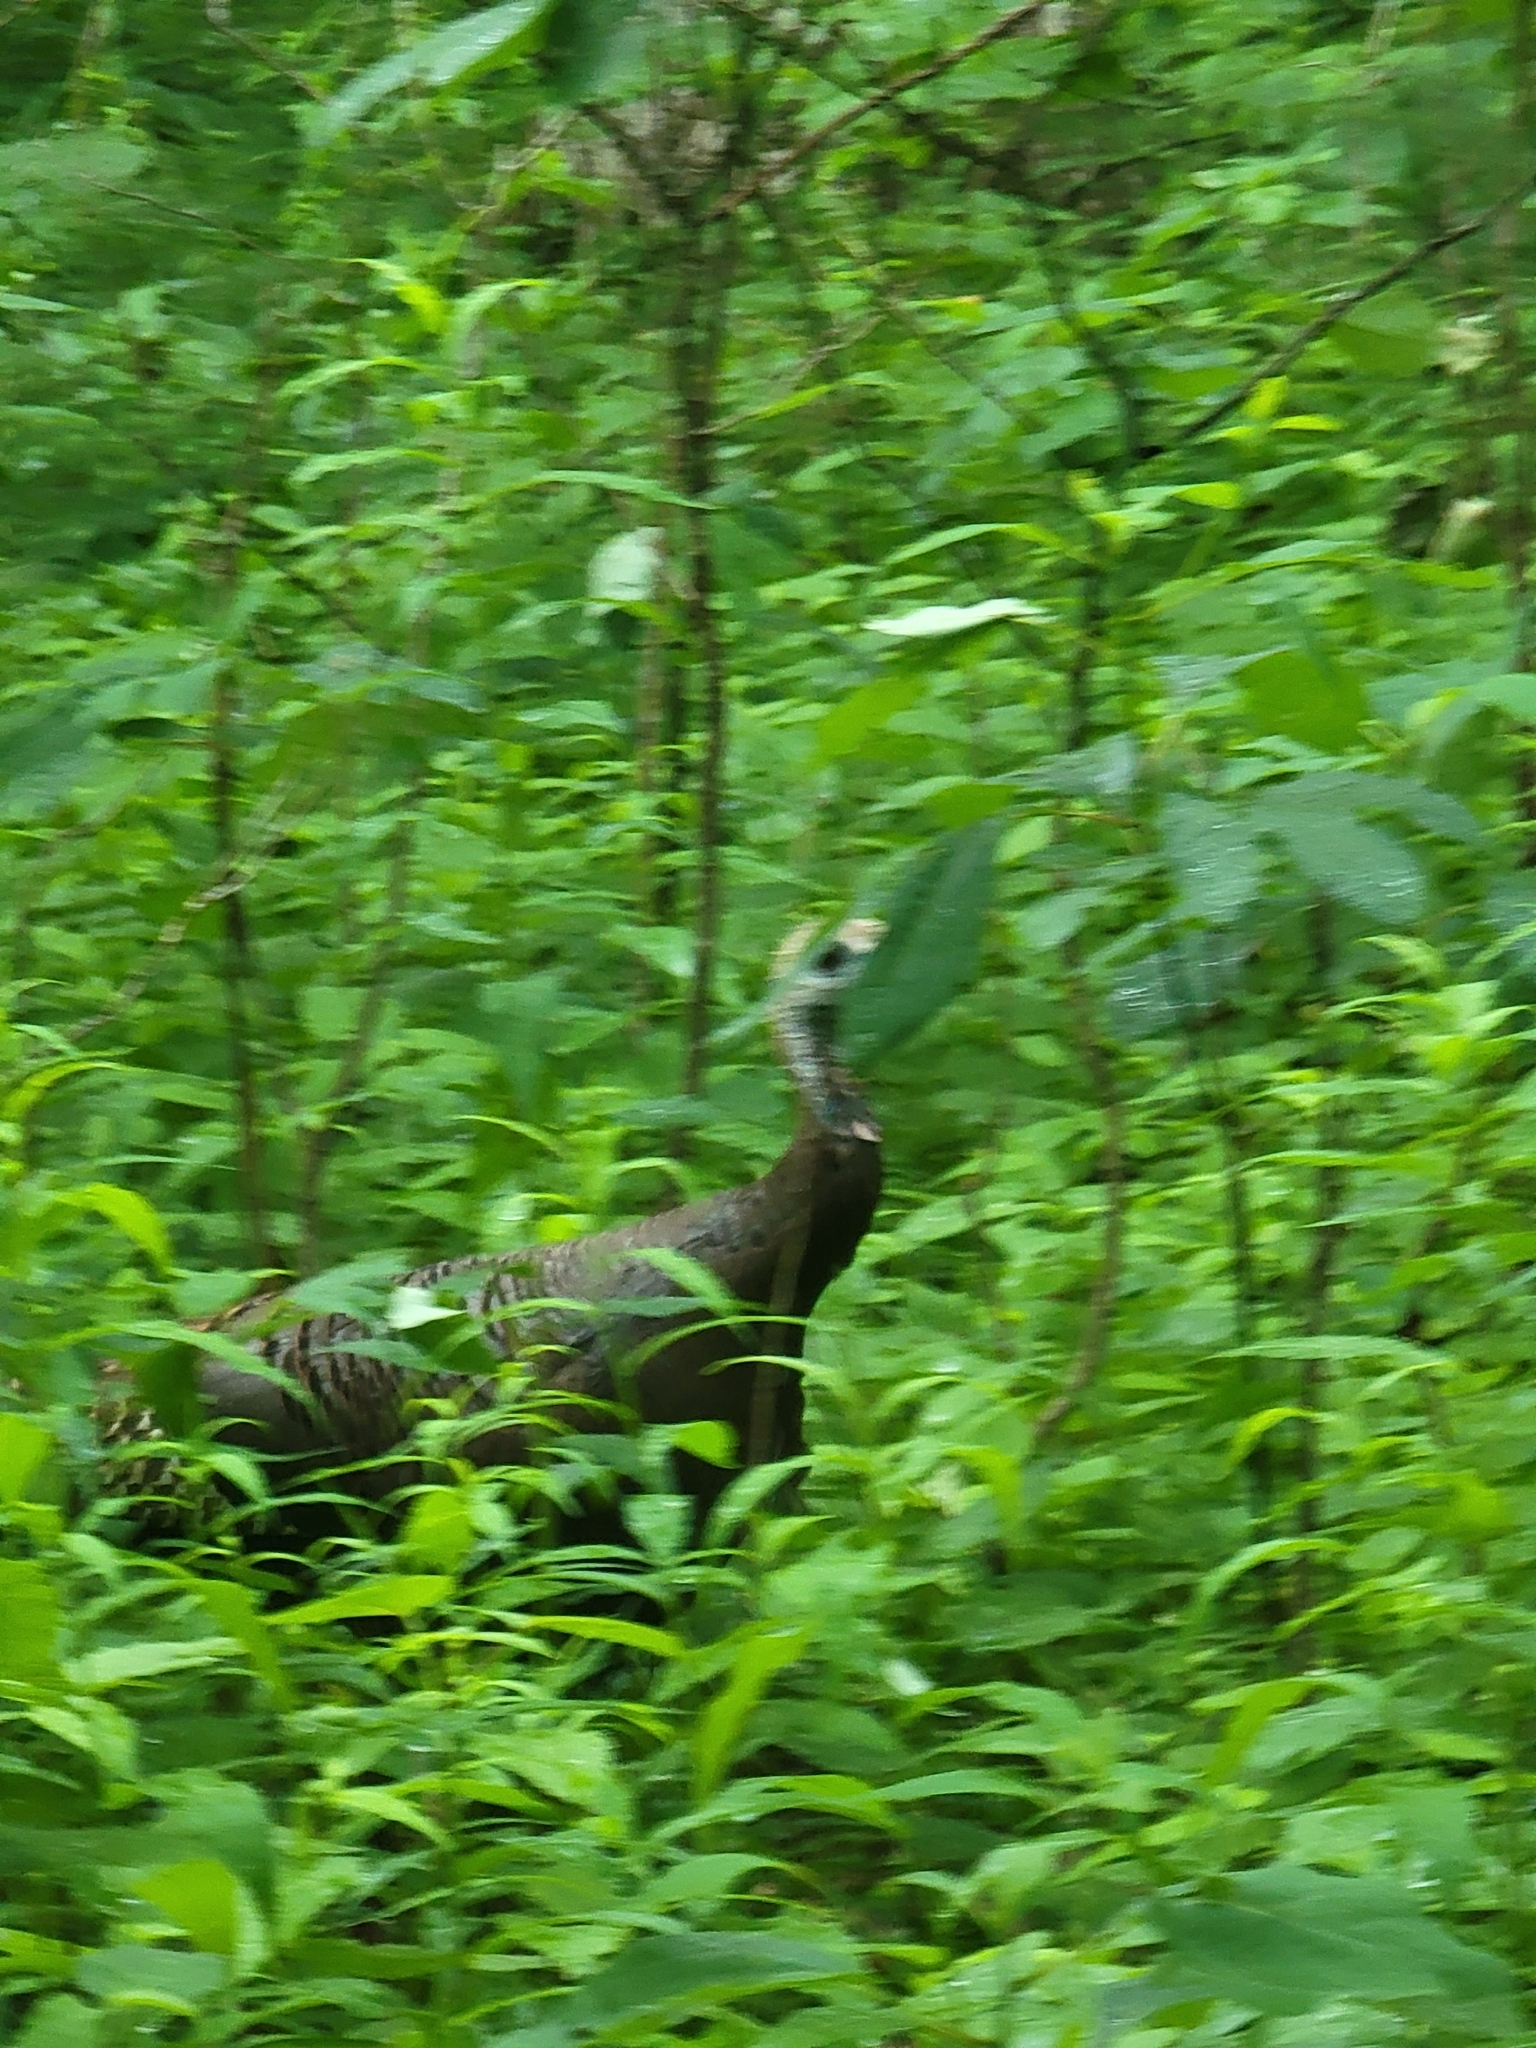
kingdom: Animalia
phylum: Chordata
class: Aves
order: Galliformes
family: Phasianidae
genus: Meleagris
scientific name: Meleagris gallopavo
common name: Wild turkey
